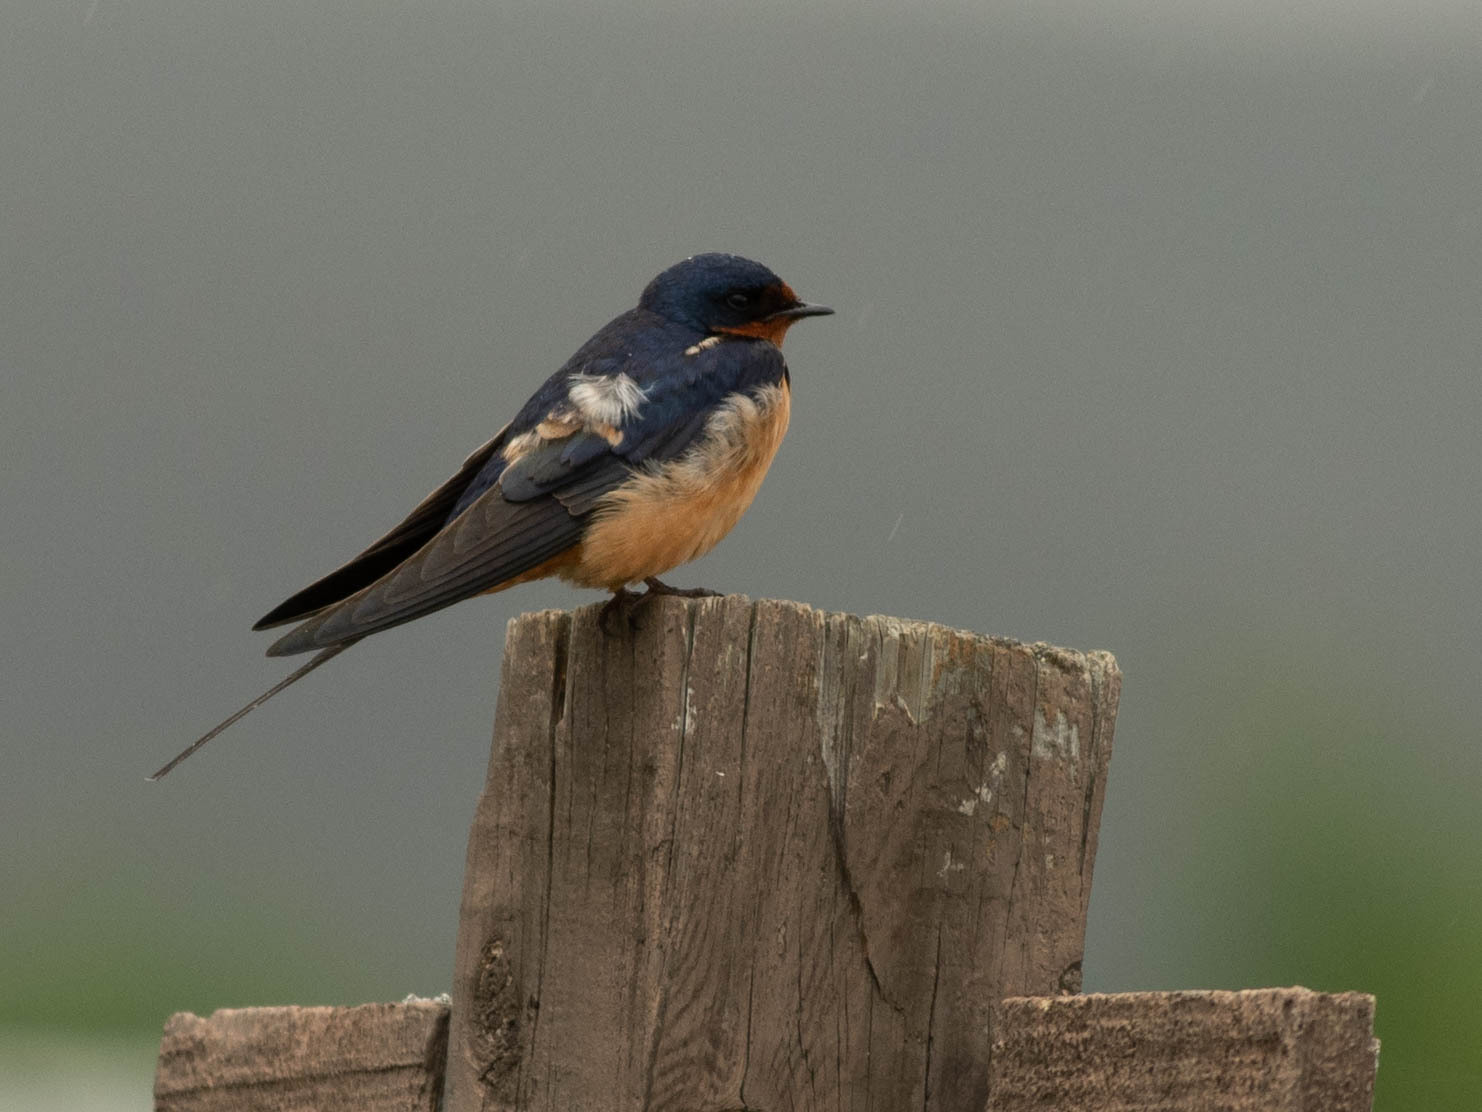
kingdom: Animalia
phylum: Chordata
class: Aves
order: Passeriformes
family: Hirundinidae
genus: Hirundo
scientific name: Hirundo rustica
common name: Barn swallow
